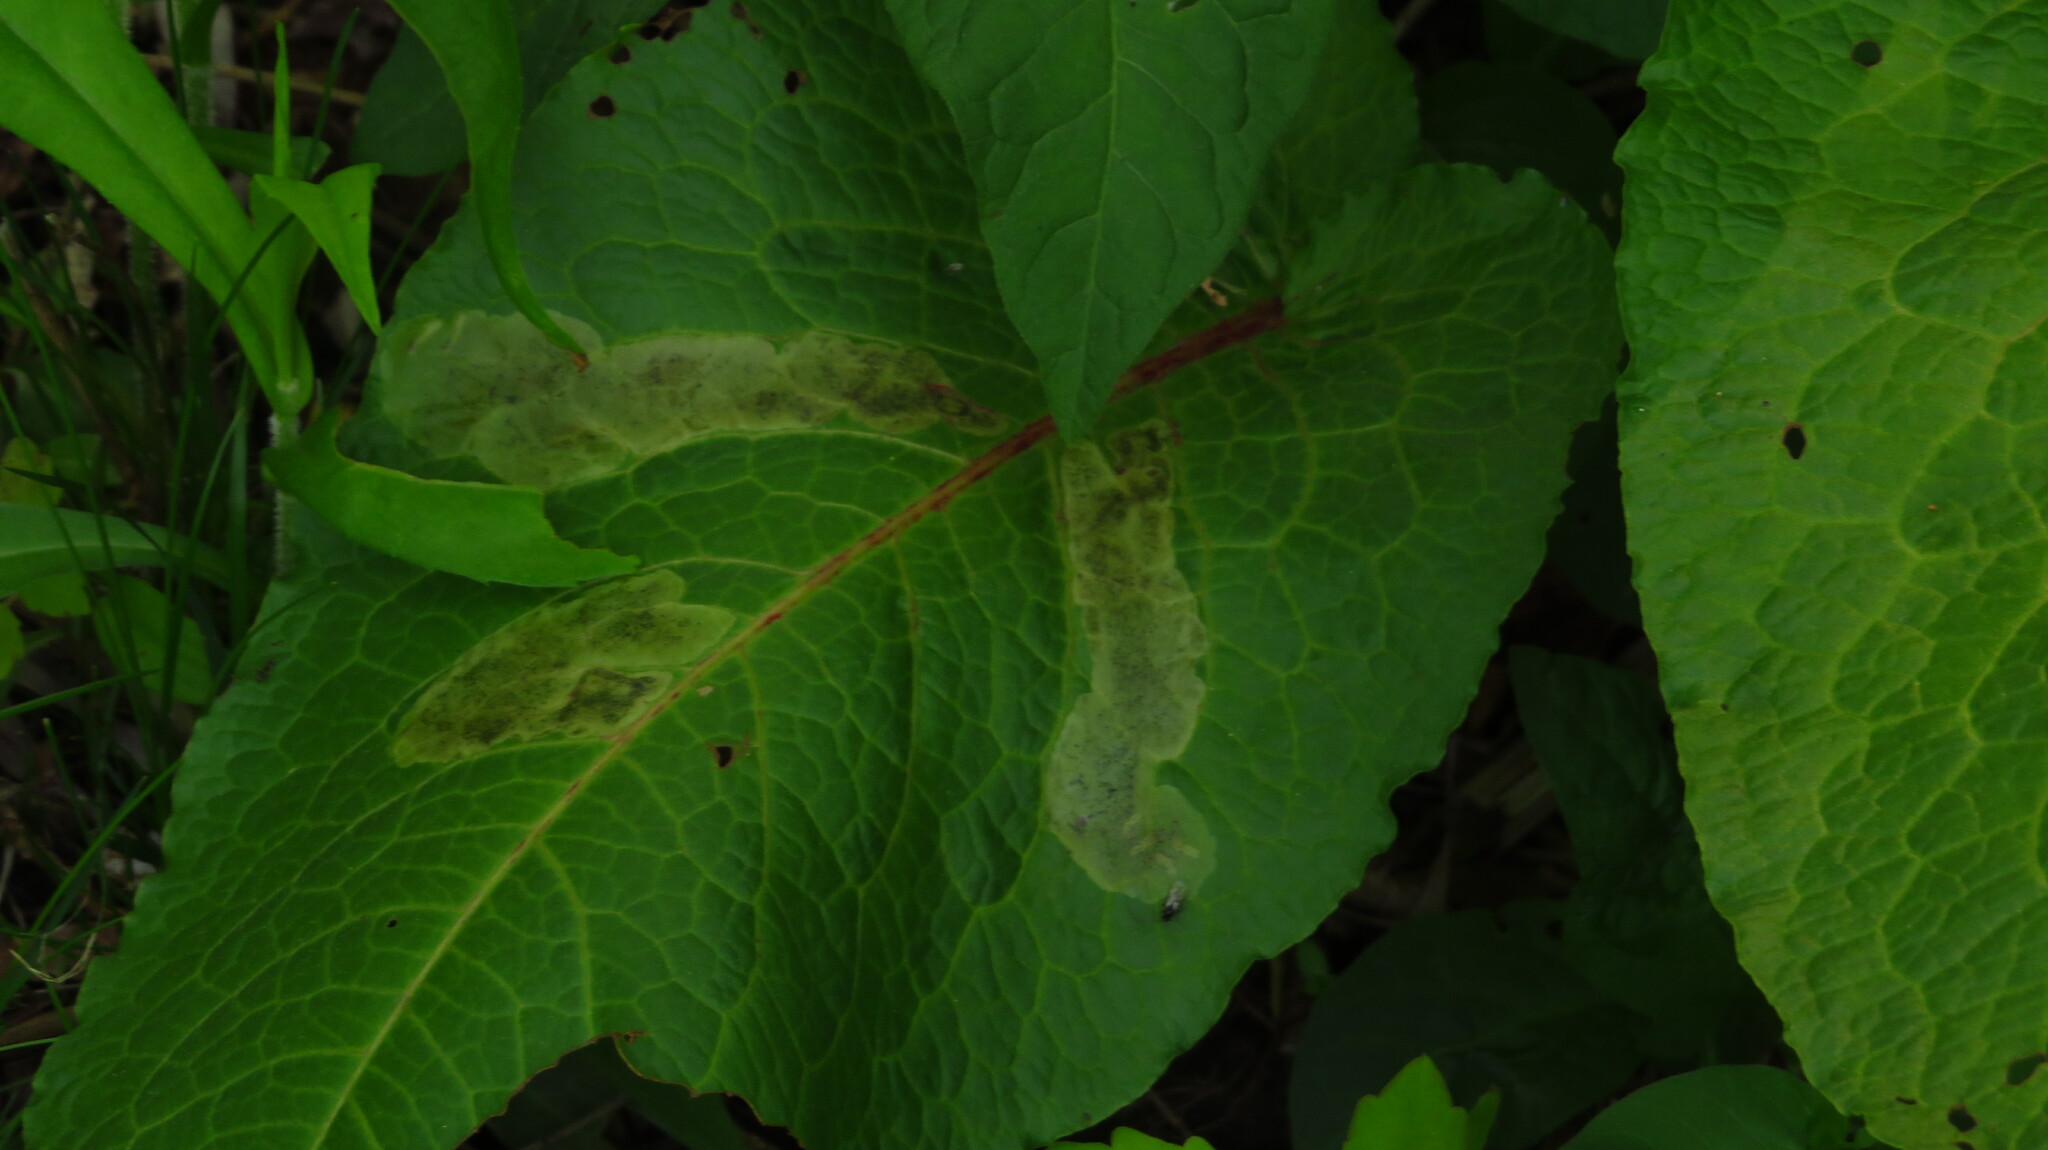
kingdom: Animalia
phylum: Arthropoda
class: Insecta
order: Diptera
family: Anthomyiidae
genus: Pegomya
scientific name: Pegomya bicolor
